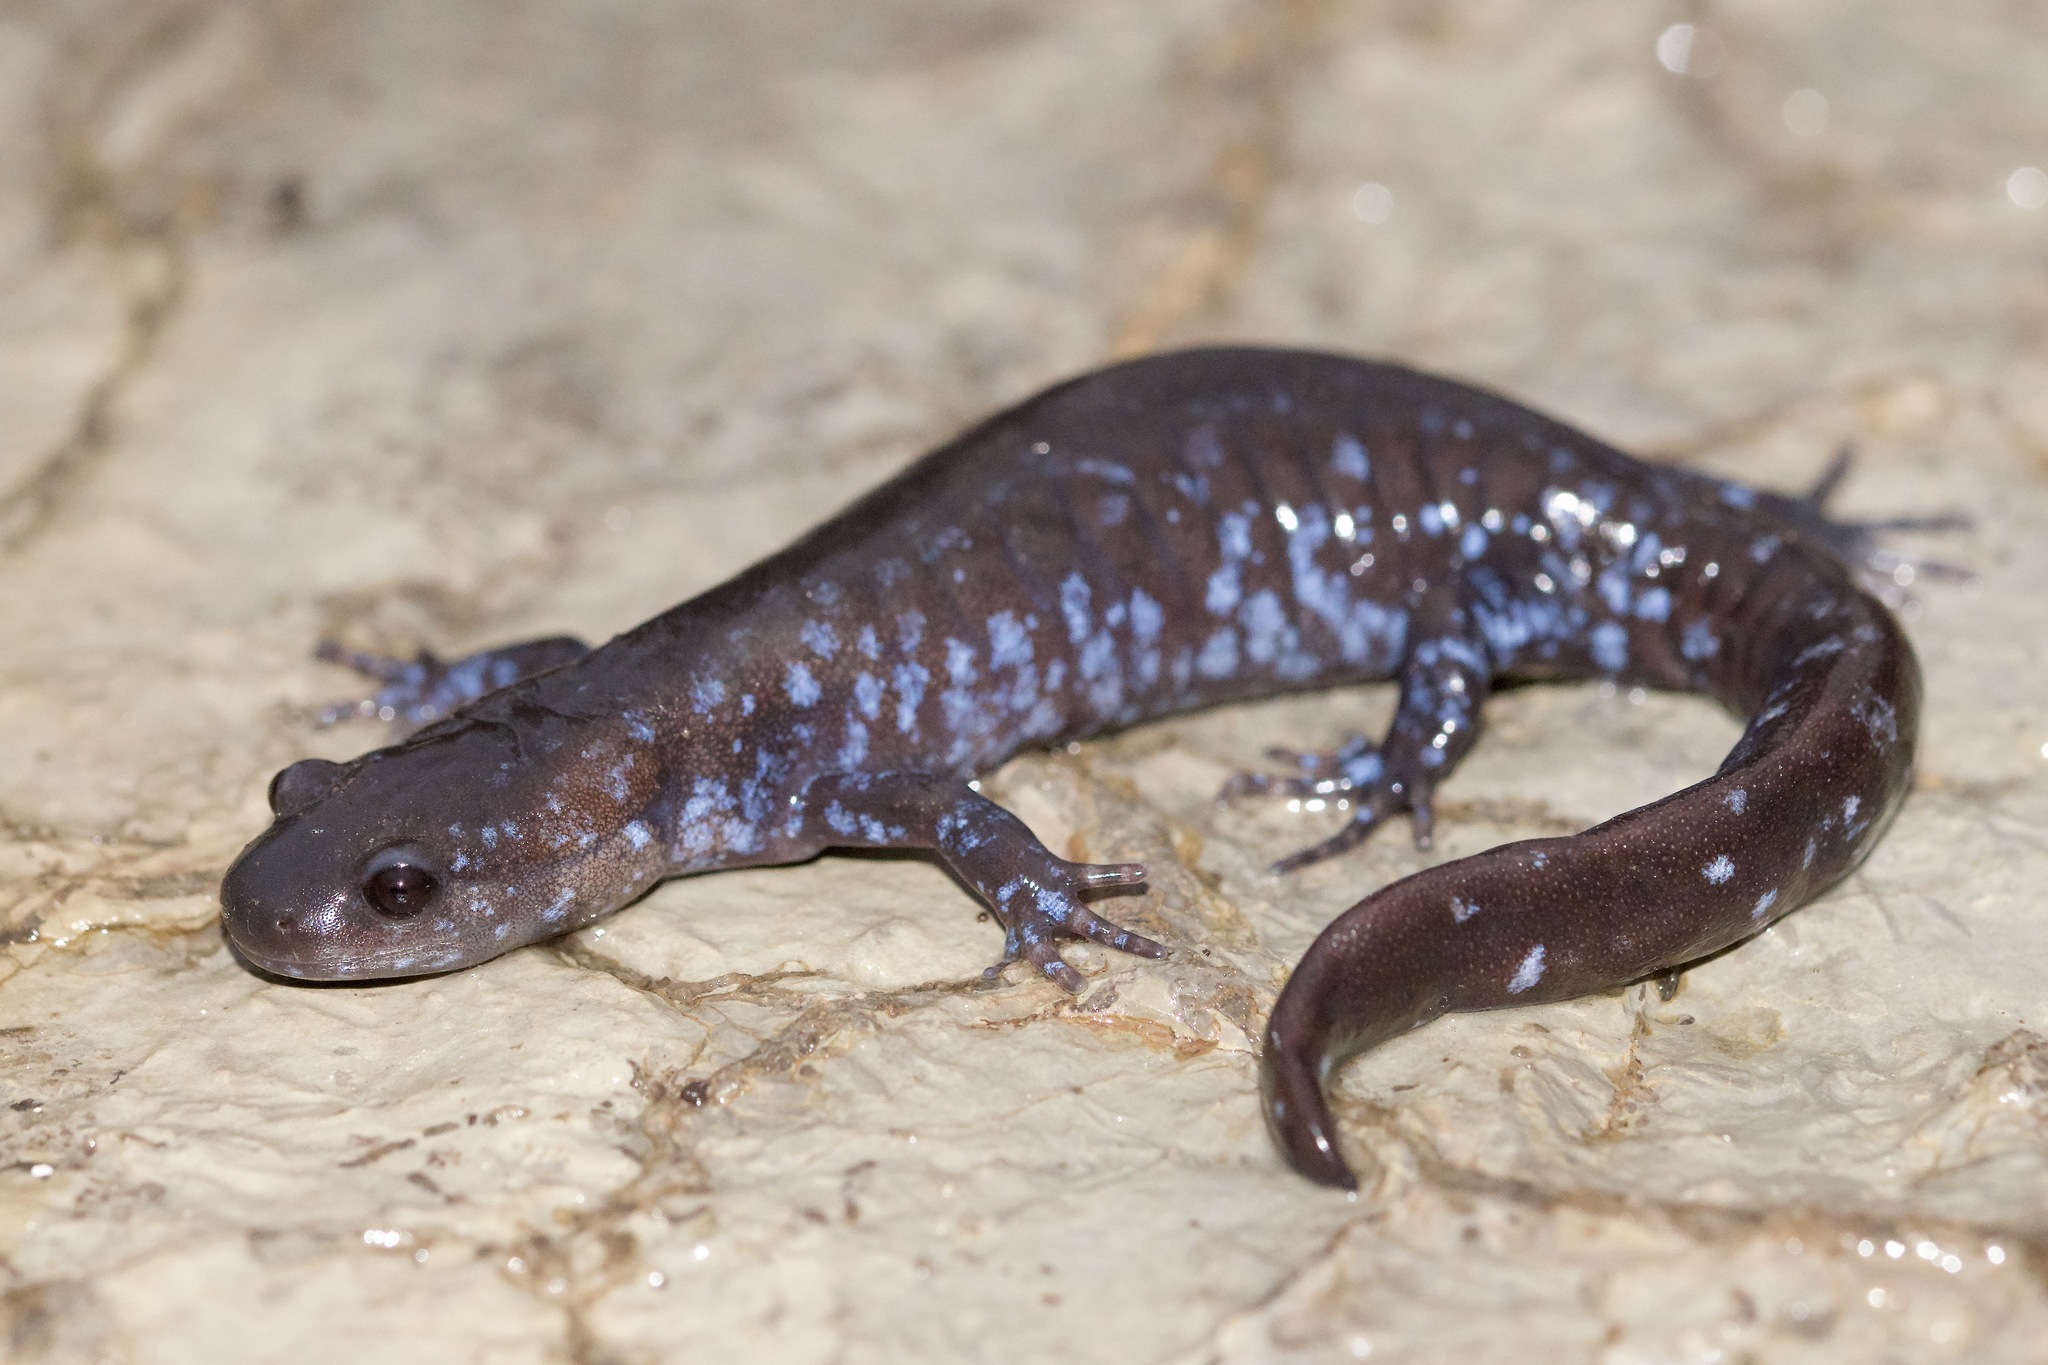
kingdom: Animalia
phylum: Chordata
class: Amphibia
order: Caudata
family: Ambystomatidae
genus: Ambystoma
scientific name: Ambystoma laterale
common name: Blue-spotted salamander
